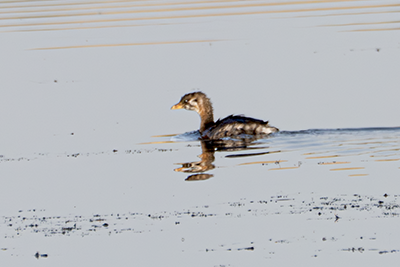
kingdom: Animalia
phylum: Chordata
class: Aves
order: Podicipediformes
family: Podicipedidae
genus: Podilymbus
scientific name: Podilymbus podiceps
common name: Pied-billed grebe
